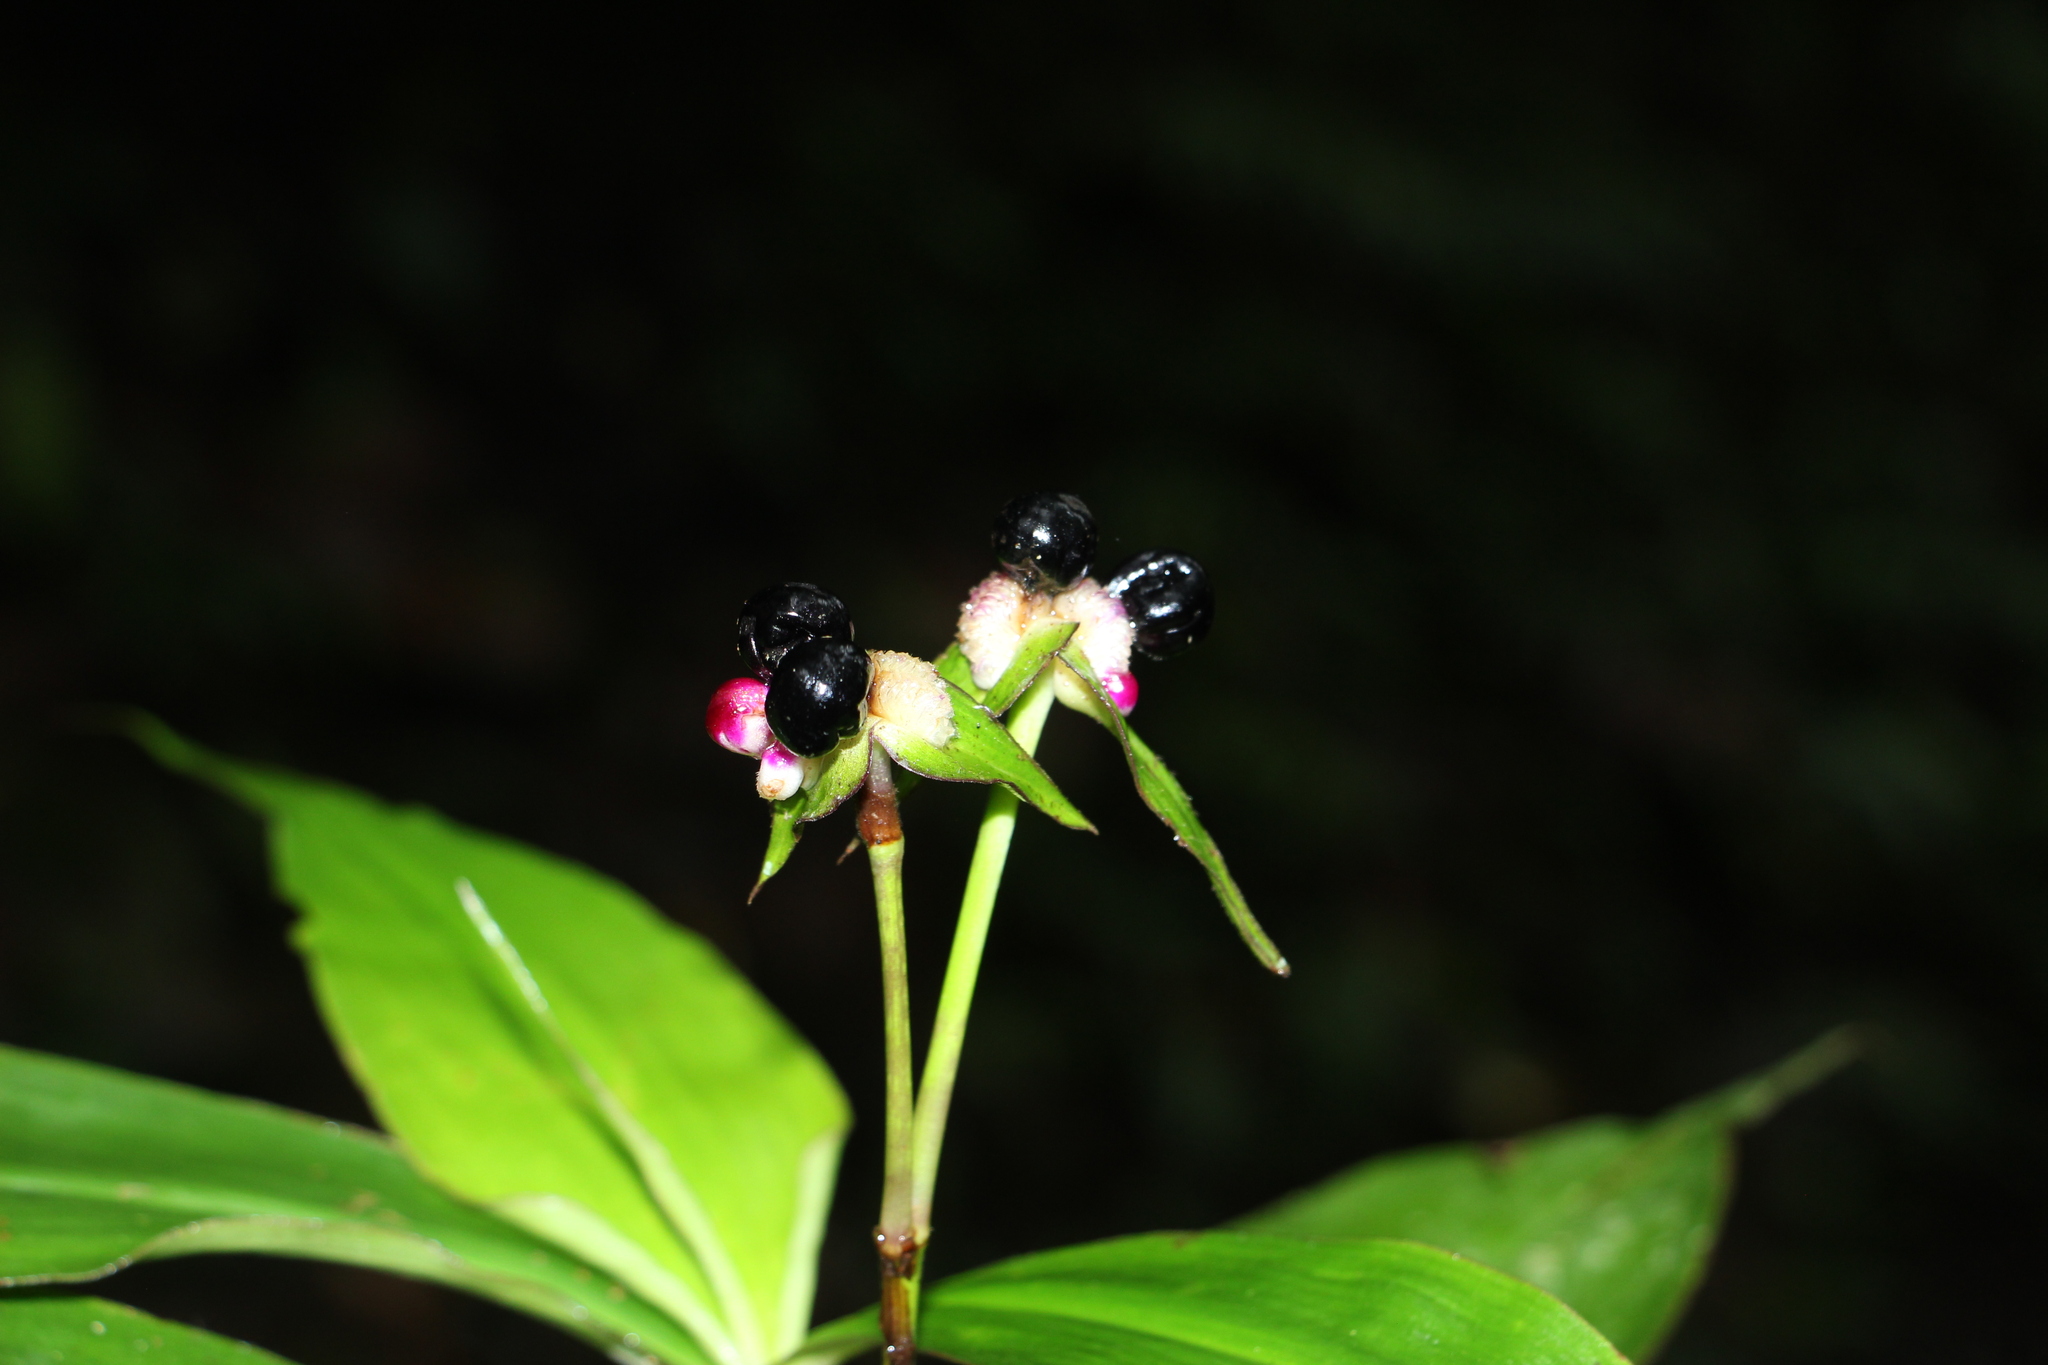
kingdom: Plantae
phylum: Tracheophyta
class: Liliopsida
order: Commelinales
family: Commelinaceae
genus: Tradescantia
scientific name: Tradescantia zanonia
